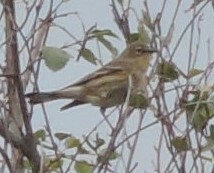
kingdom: Animalia
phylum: Chordata
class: Aves
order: Passeriformes
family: Parulidae
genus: Setophaga
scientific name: Setophaga coronata
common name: Myrtle warbler
